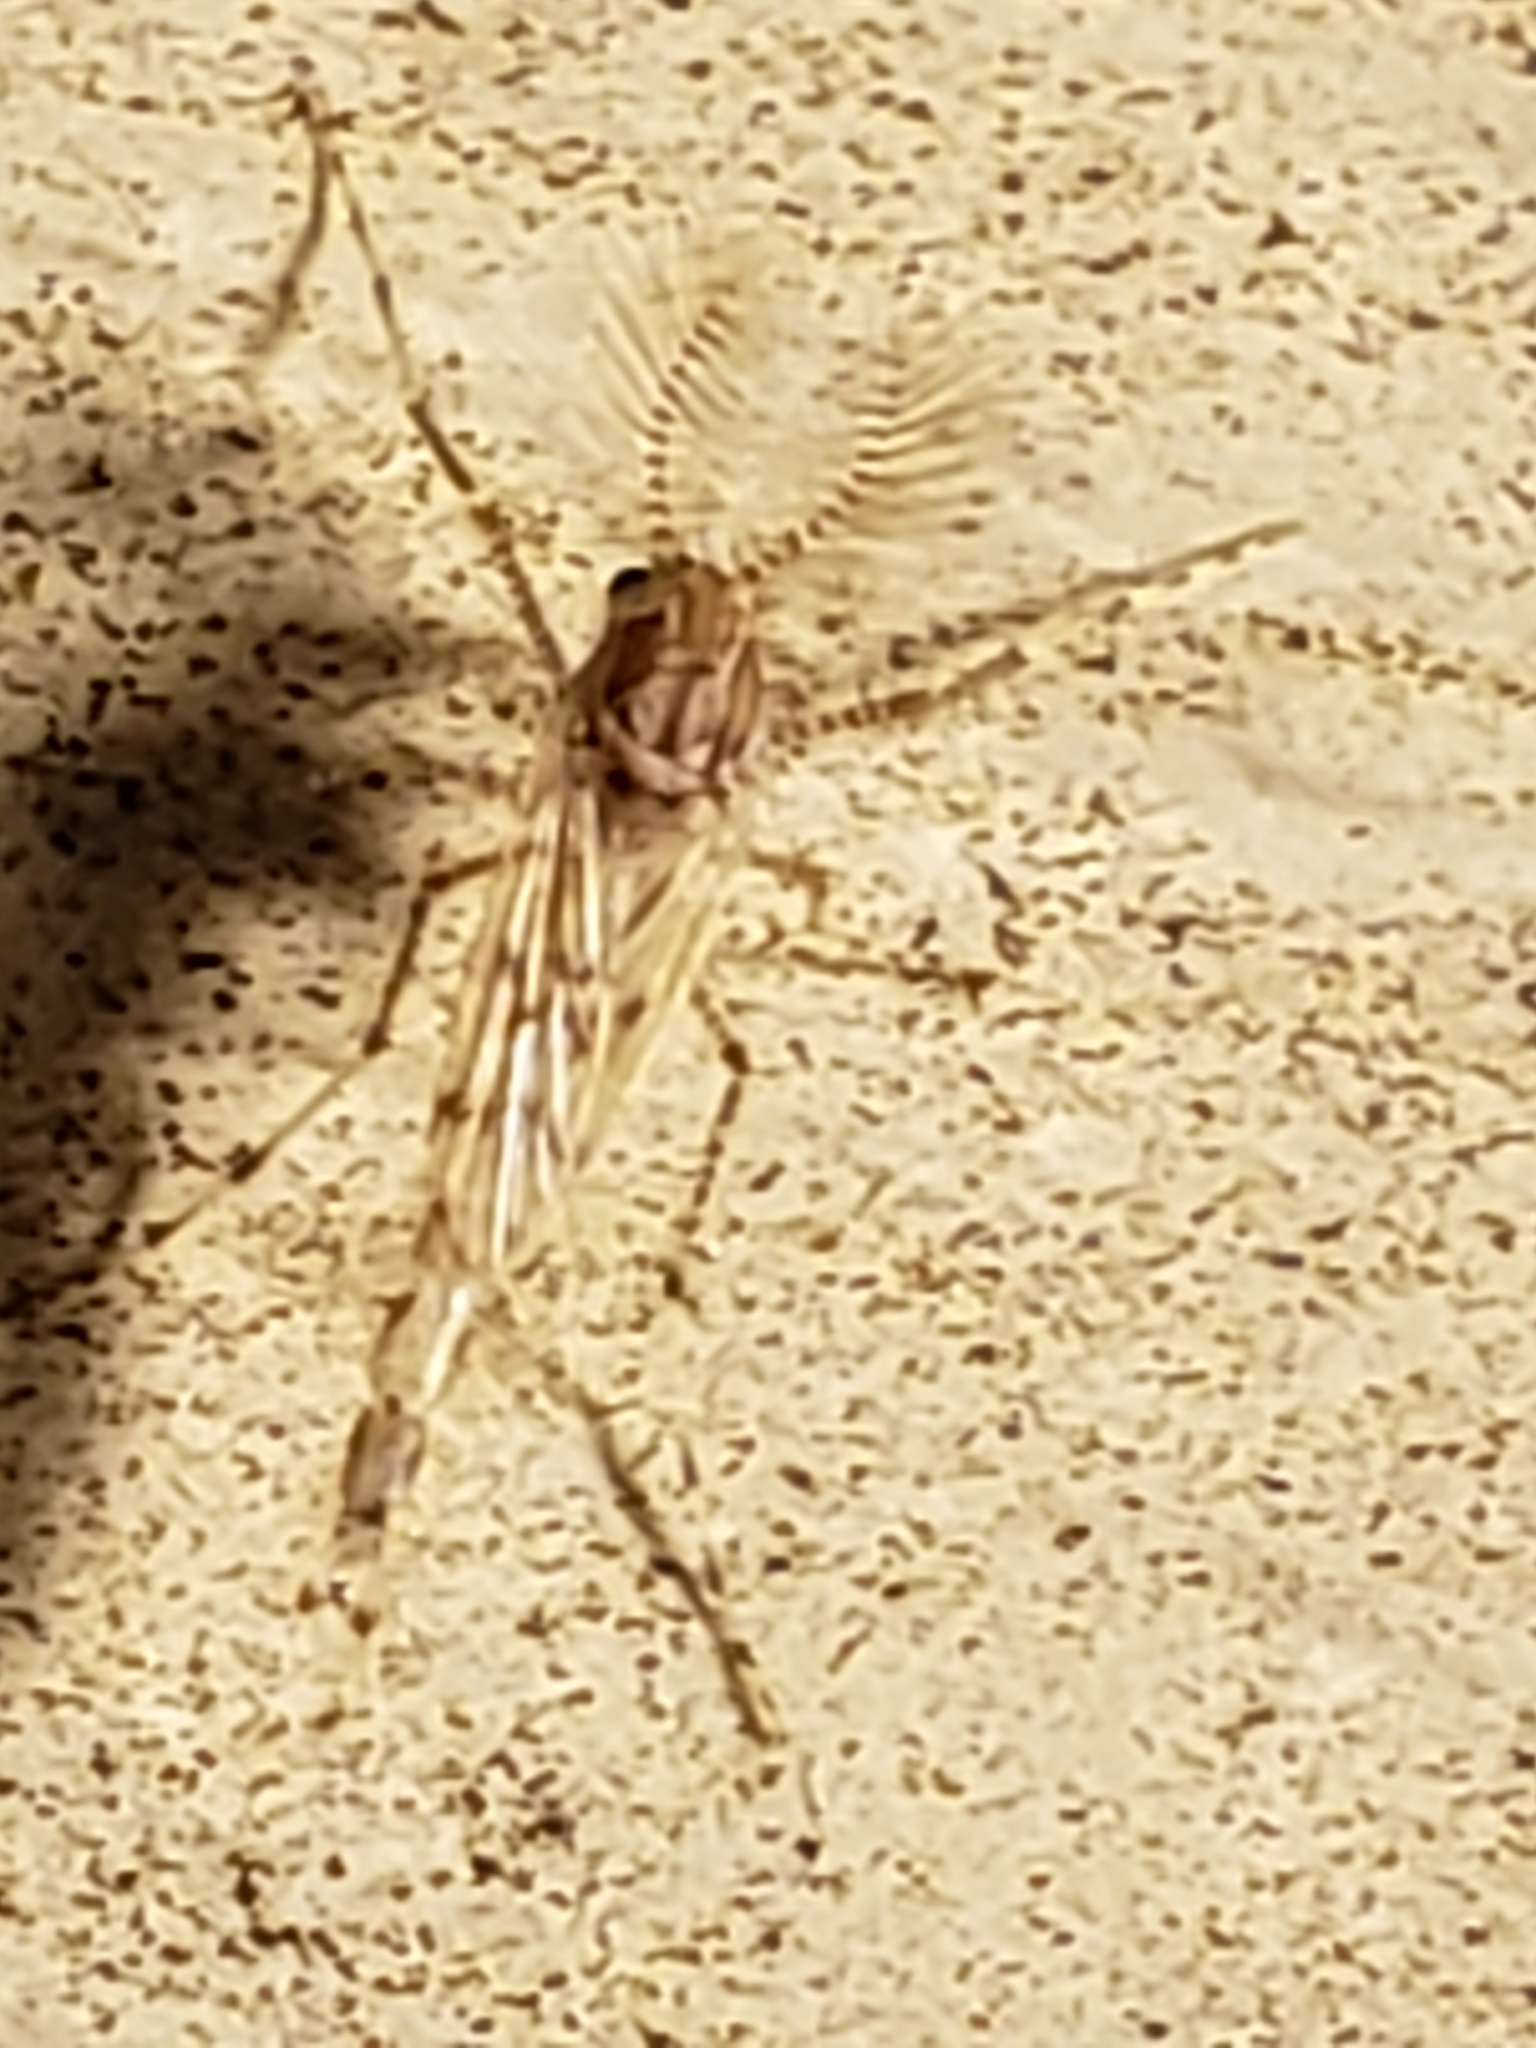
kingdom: Animalia
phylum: Arthropoda
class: Insecta
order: Diptera
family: Chaoboridae
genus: Chaoborus
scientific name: Chaoborus punctipennis
